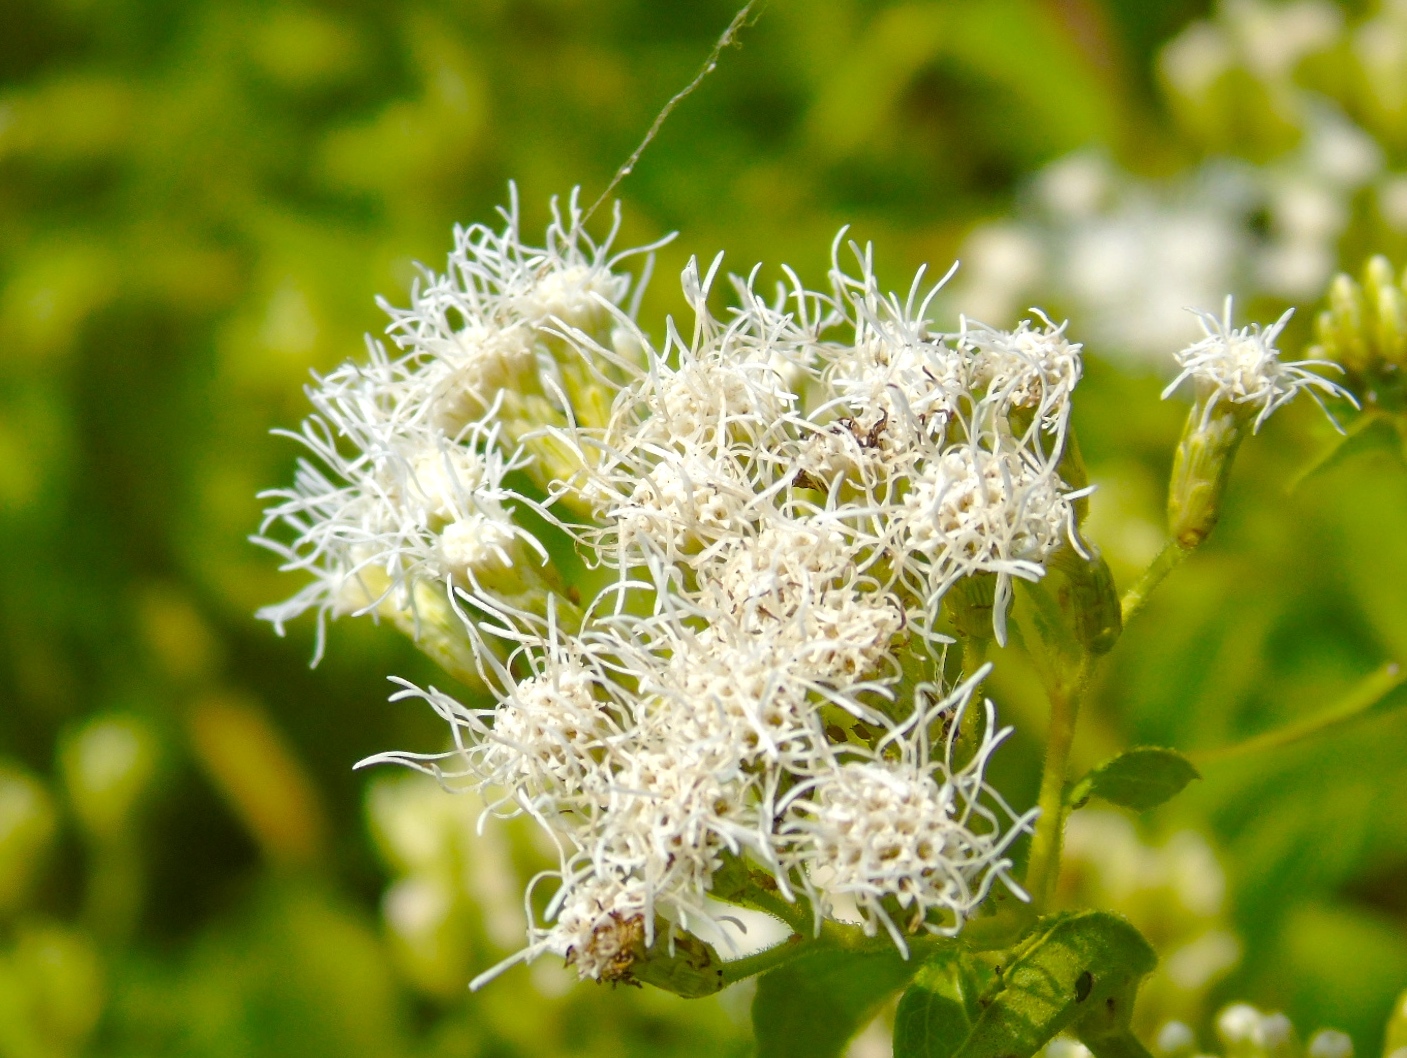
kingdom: Plantae
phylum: Tracheophyta
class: Magnoliopsida
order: Asterales
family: Asteraceae
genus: Chromolaena
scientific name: Chromolaena odorata
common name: Siamweed
